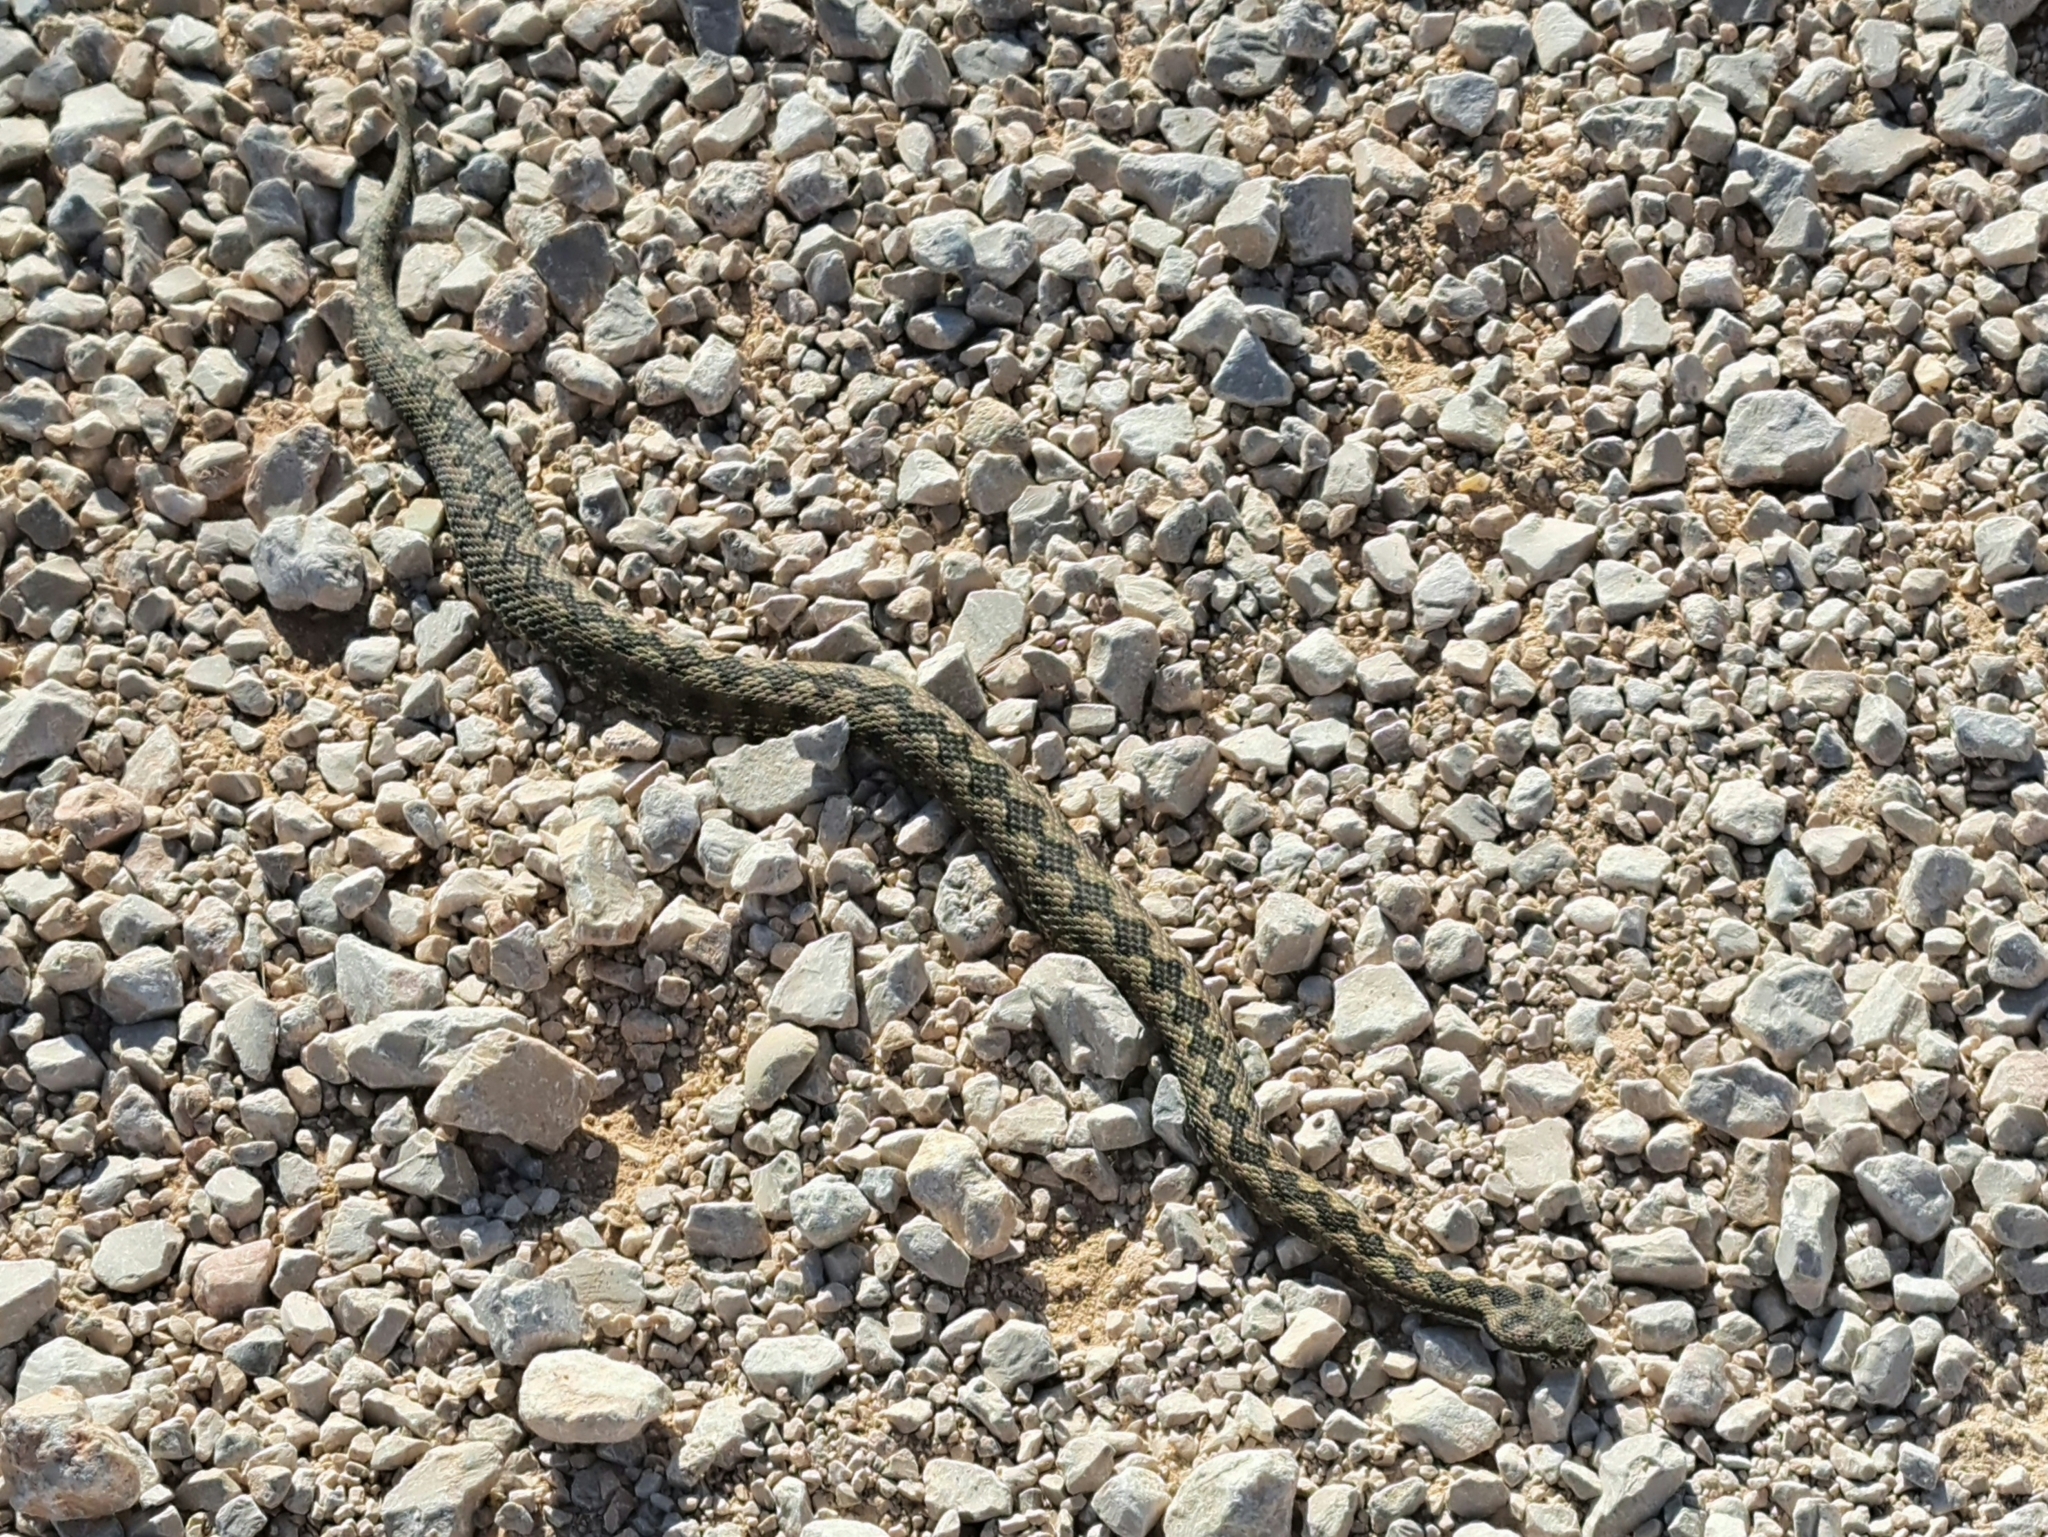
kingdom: Animalia
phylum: Chordata
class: Squamata
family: Viperidae
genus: Vipera
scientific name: Vipera latastei
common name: Lataste's viper
